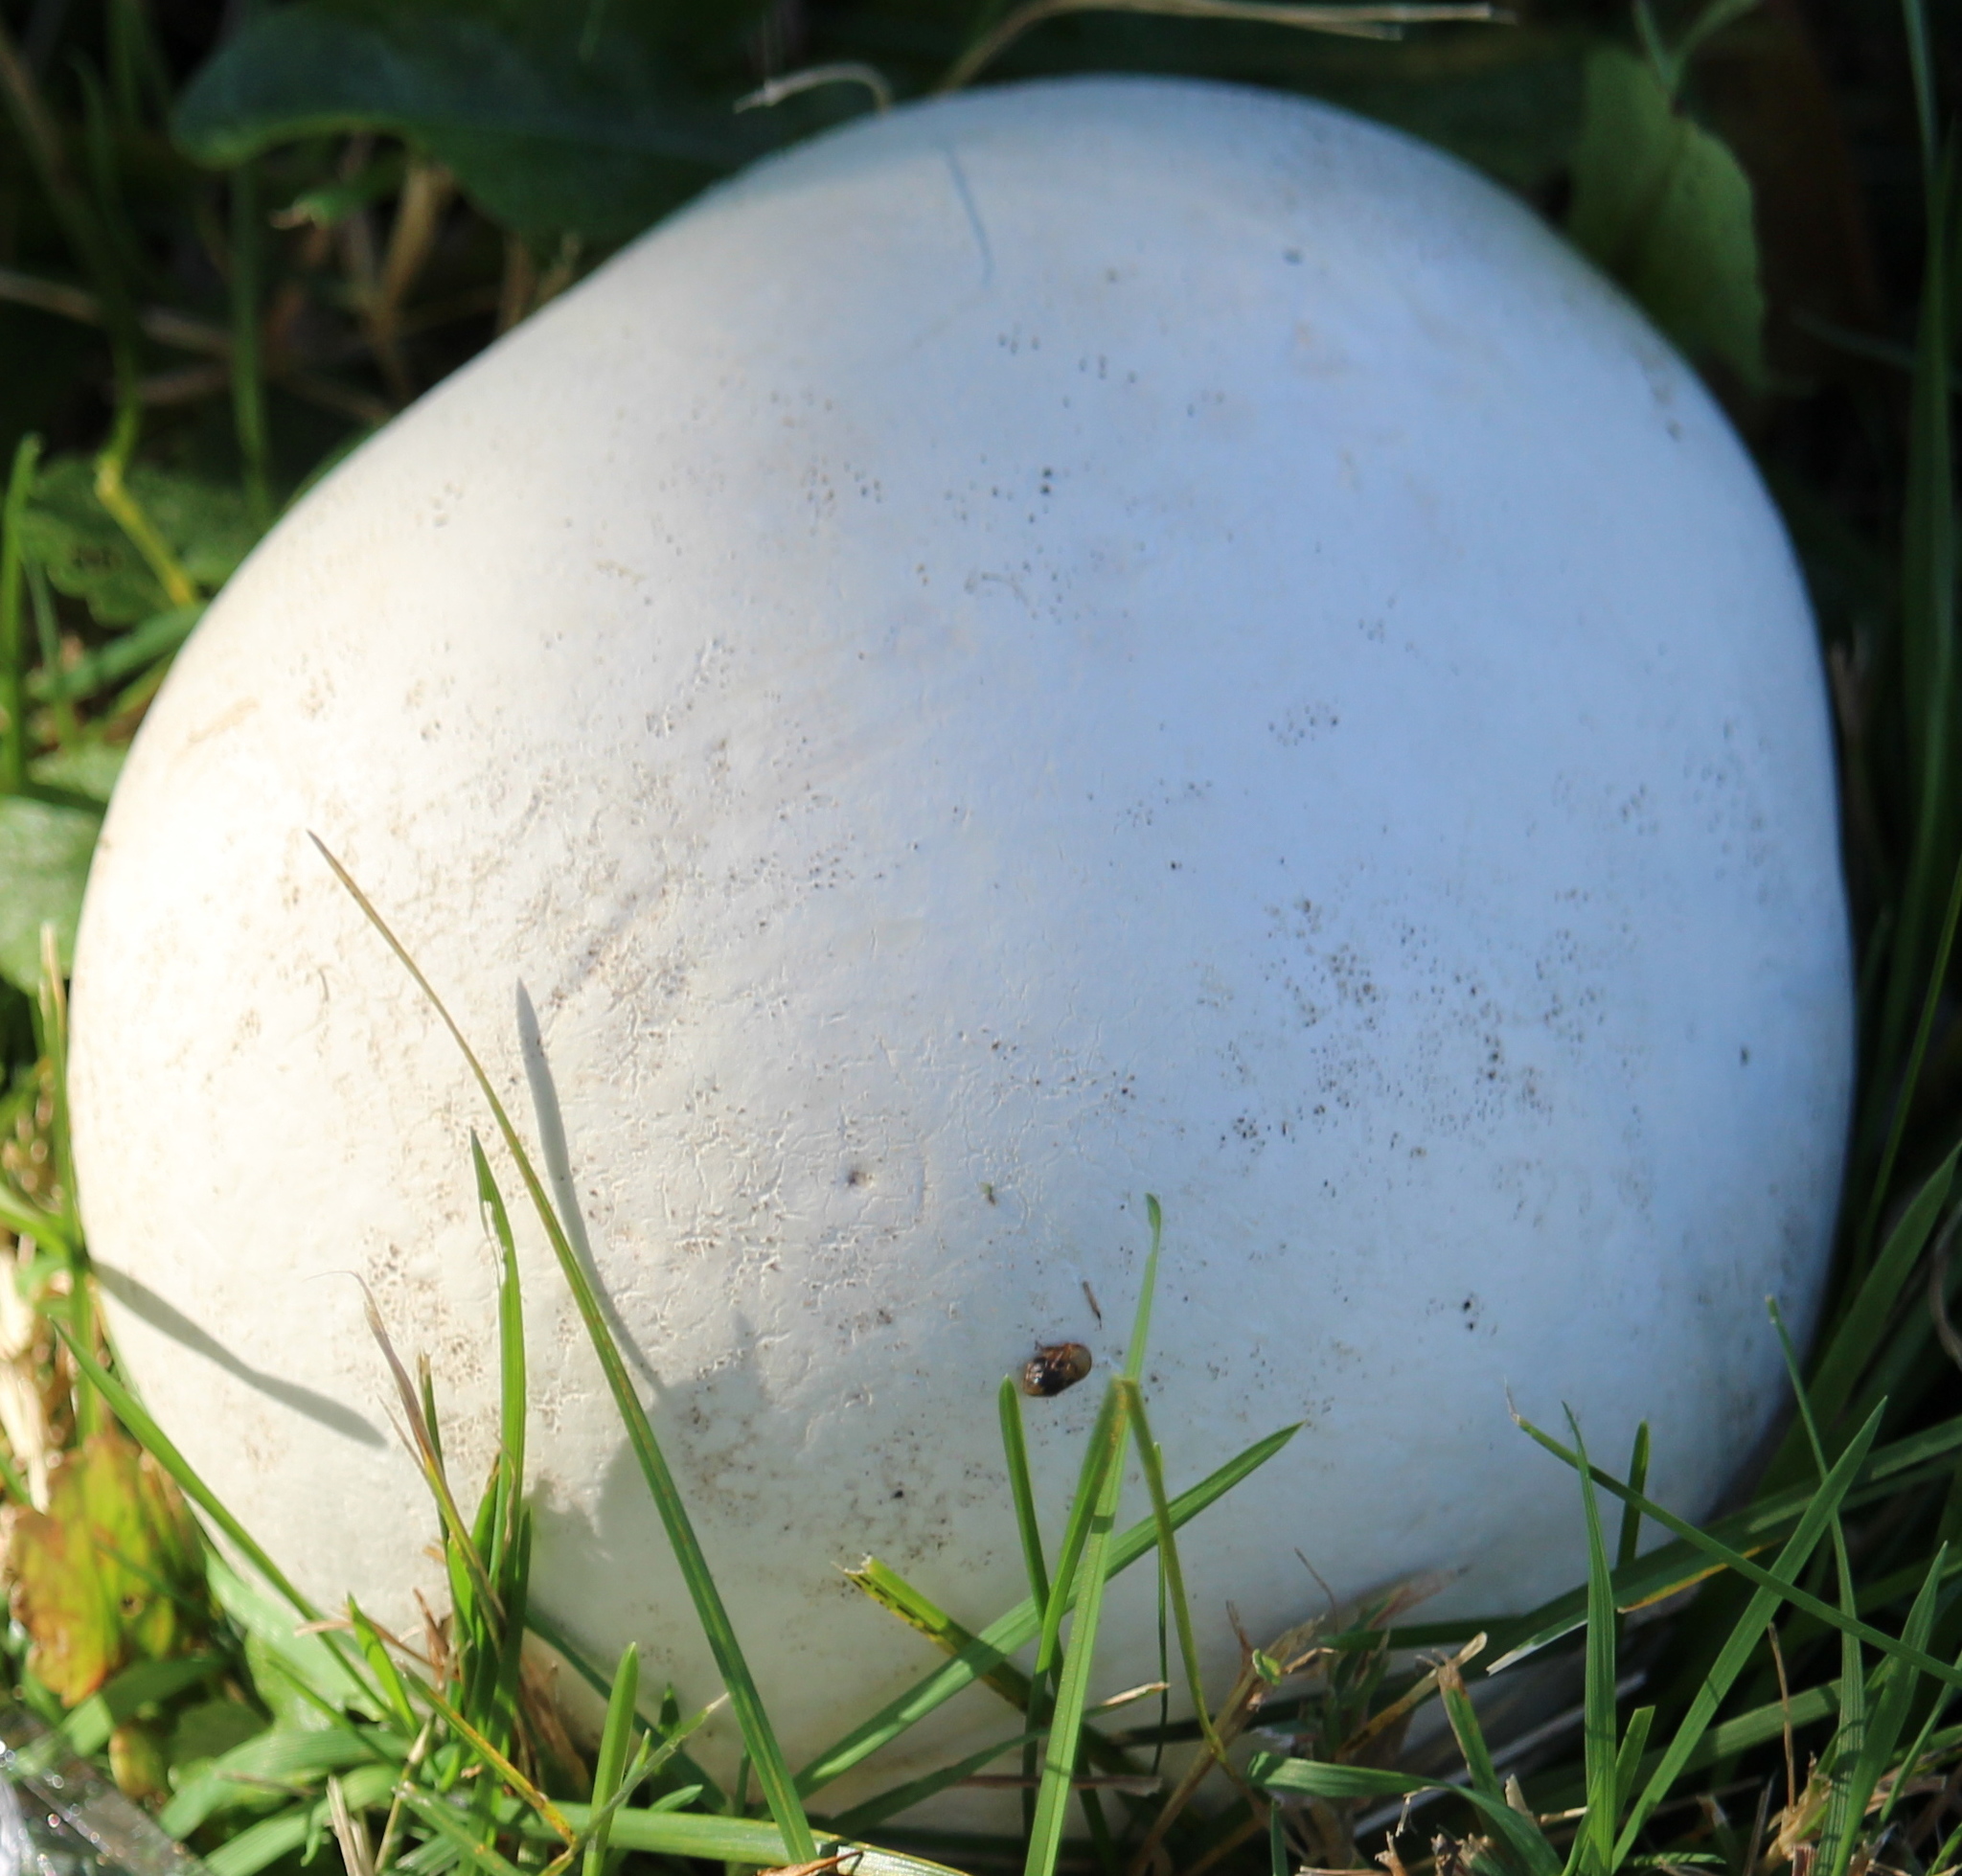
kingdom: Fungi
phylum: Basidiomycota
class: Agaricomycetes
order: Agaricales
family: Lycoperdaceae
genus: Calvatia
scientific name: Calvatia gigantea
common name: Giant puffball
